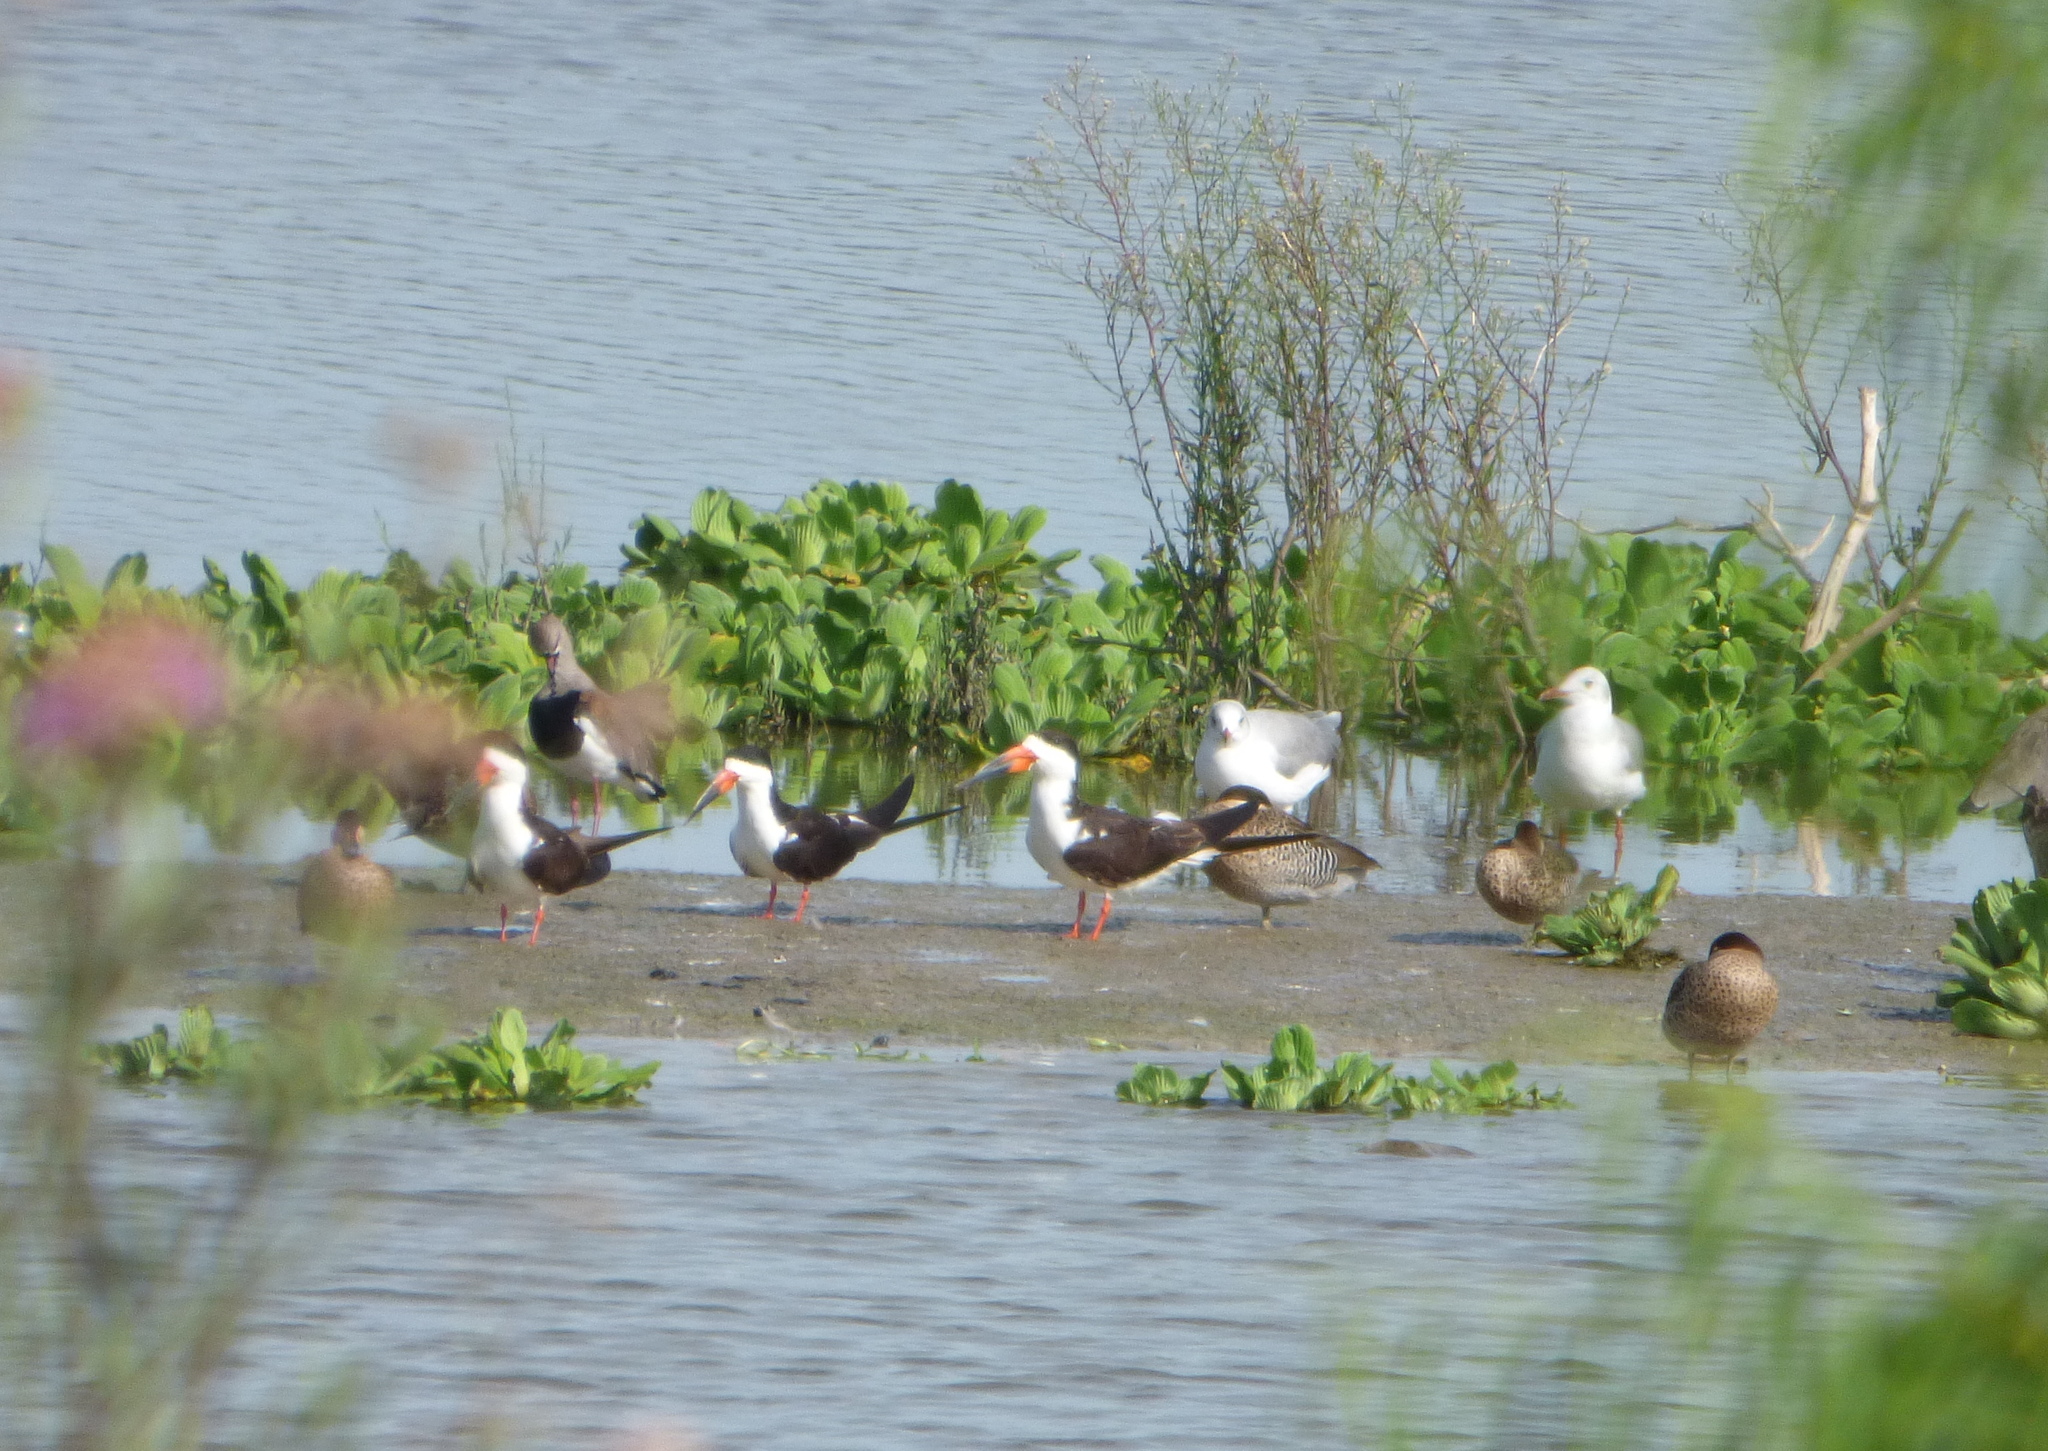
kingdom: Animalia
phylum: Chordata
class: Aves
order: Charadriiformes
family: Laridae
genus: Rynchops
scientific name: Rynchops niger
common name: Black skimmer
